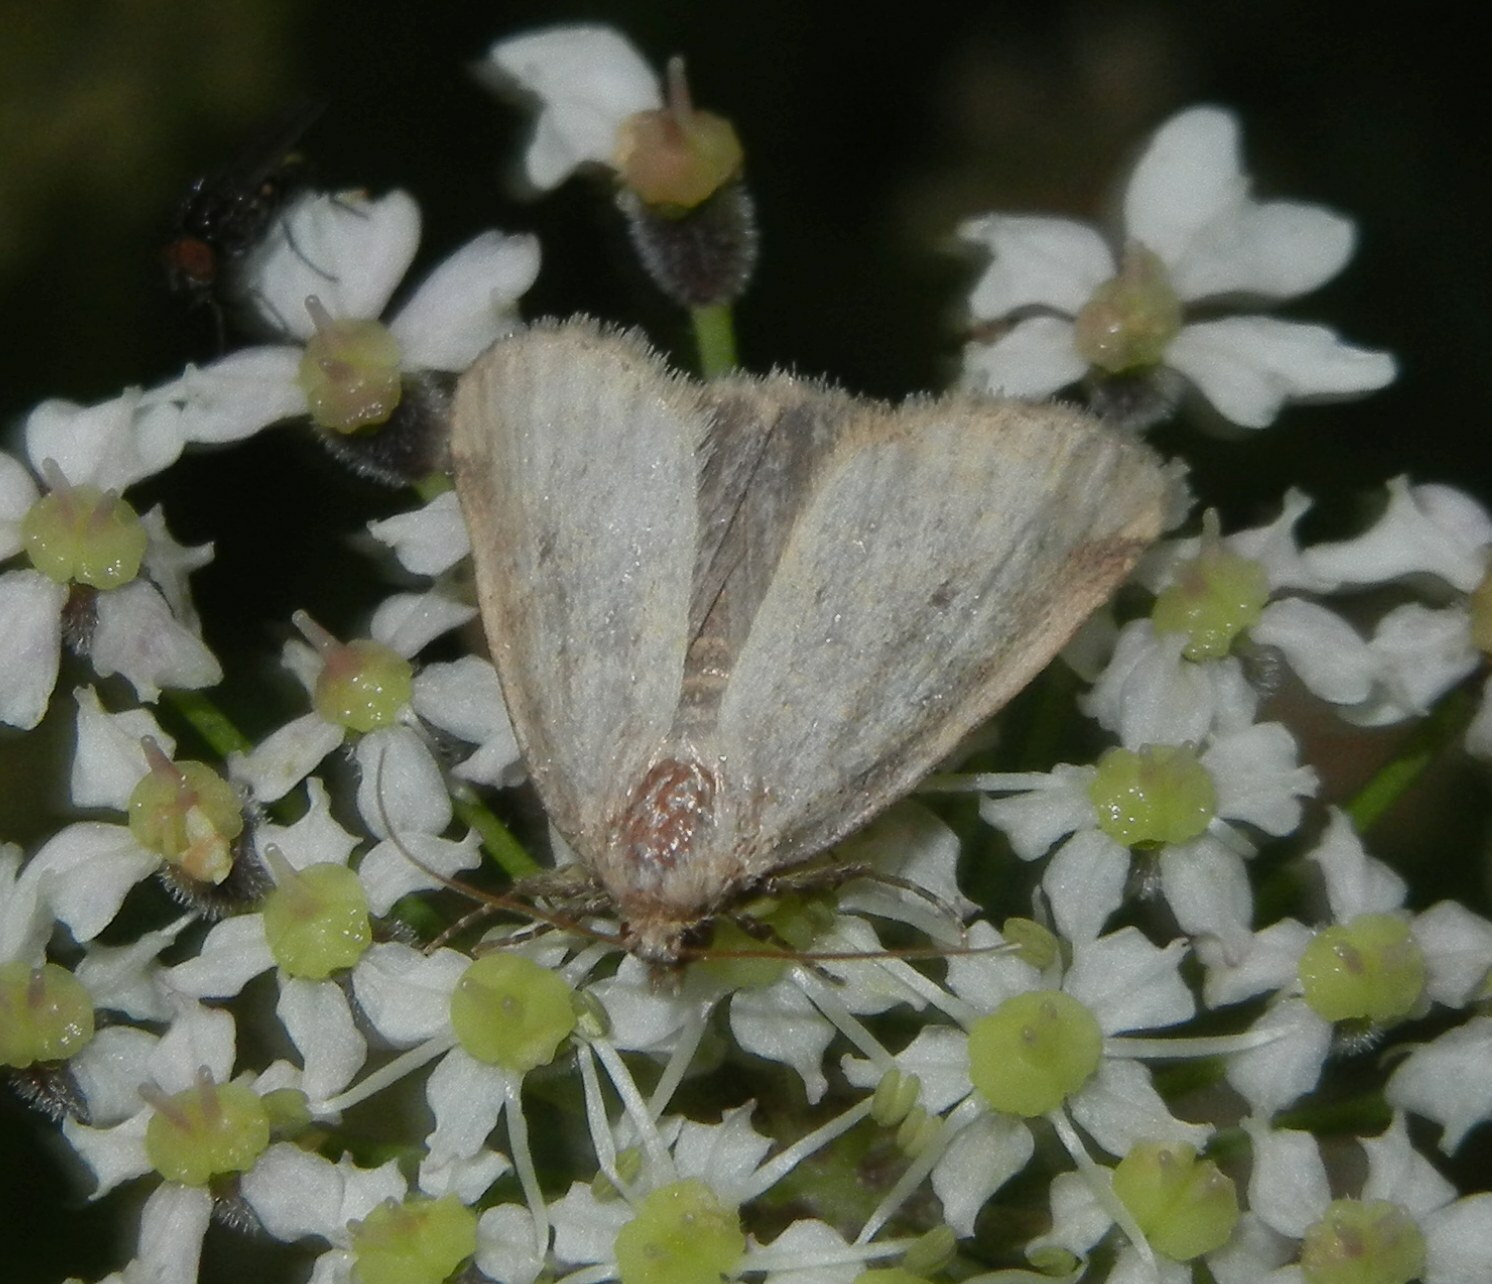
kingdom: Animalia
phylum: Arthropoda
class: Insecta
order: Lepidoptera
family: Noctuidae
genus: Photedes
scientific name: Photedes minima
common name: Small dotted buff
